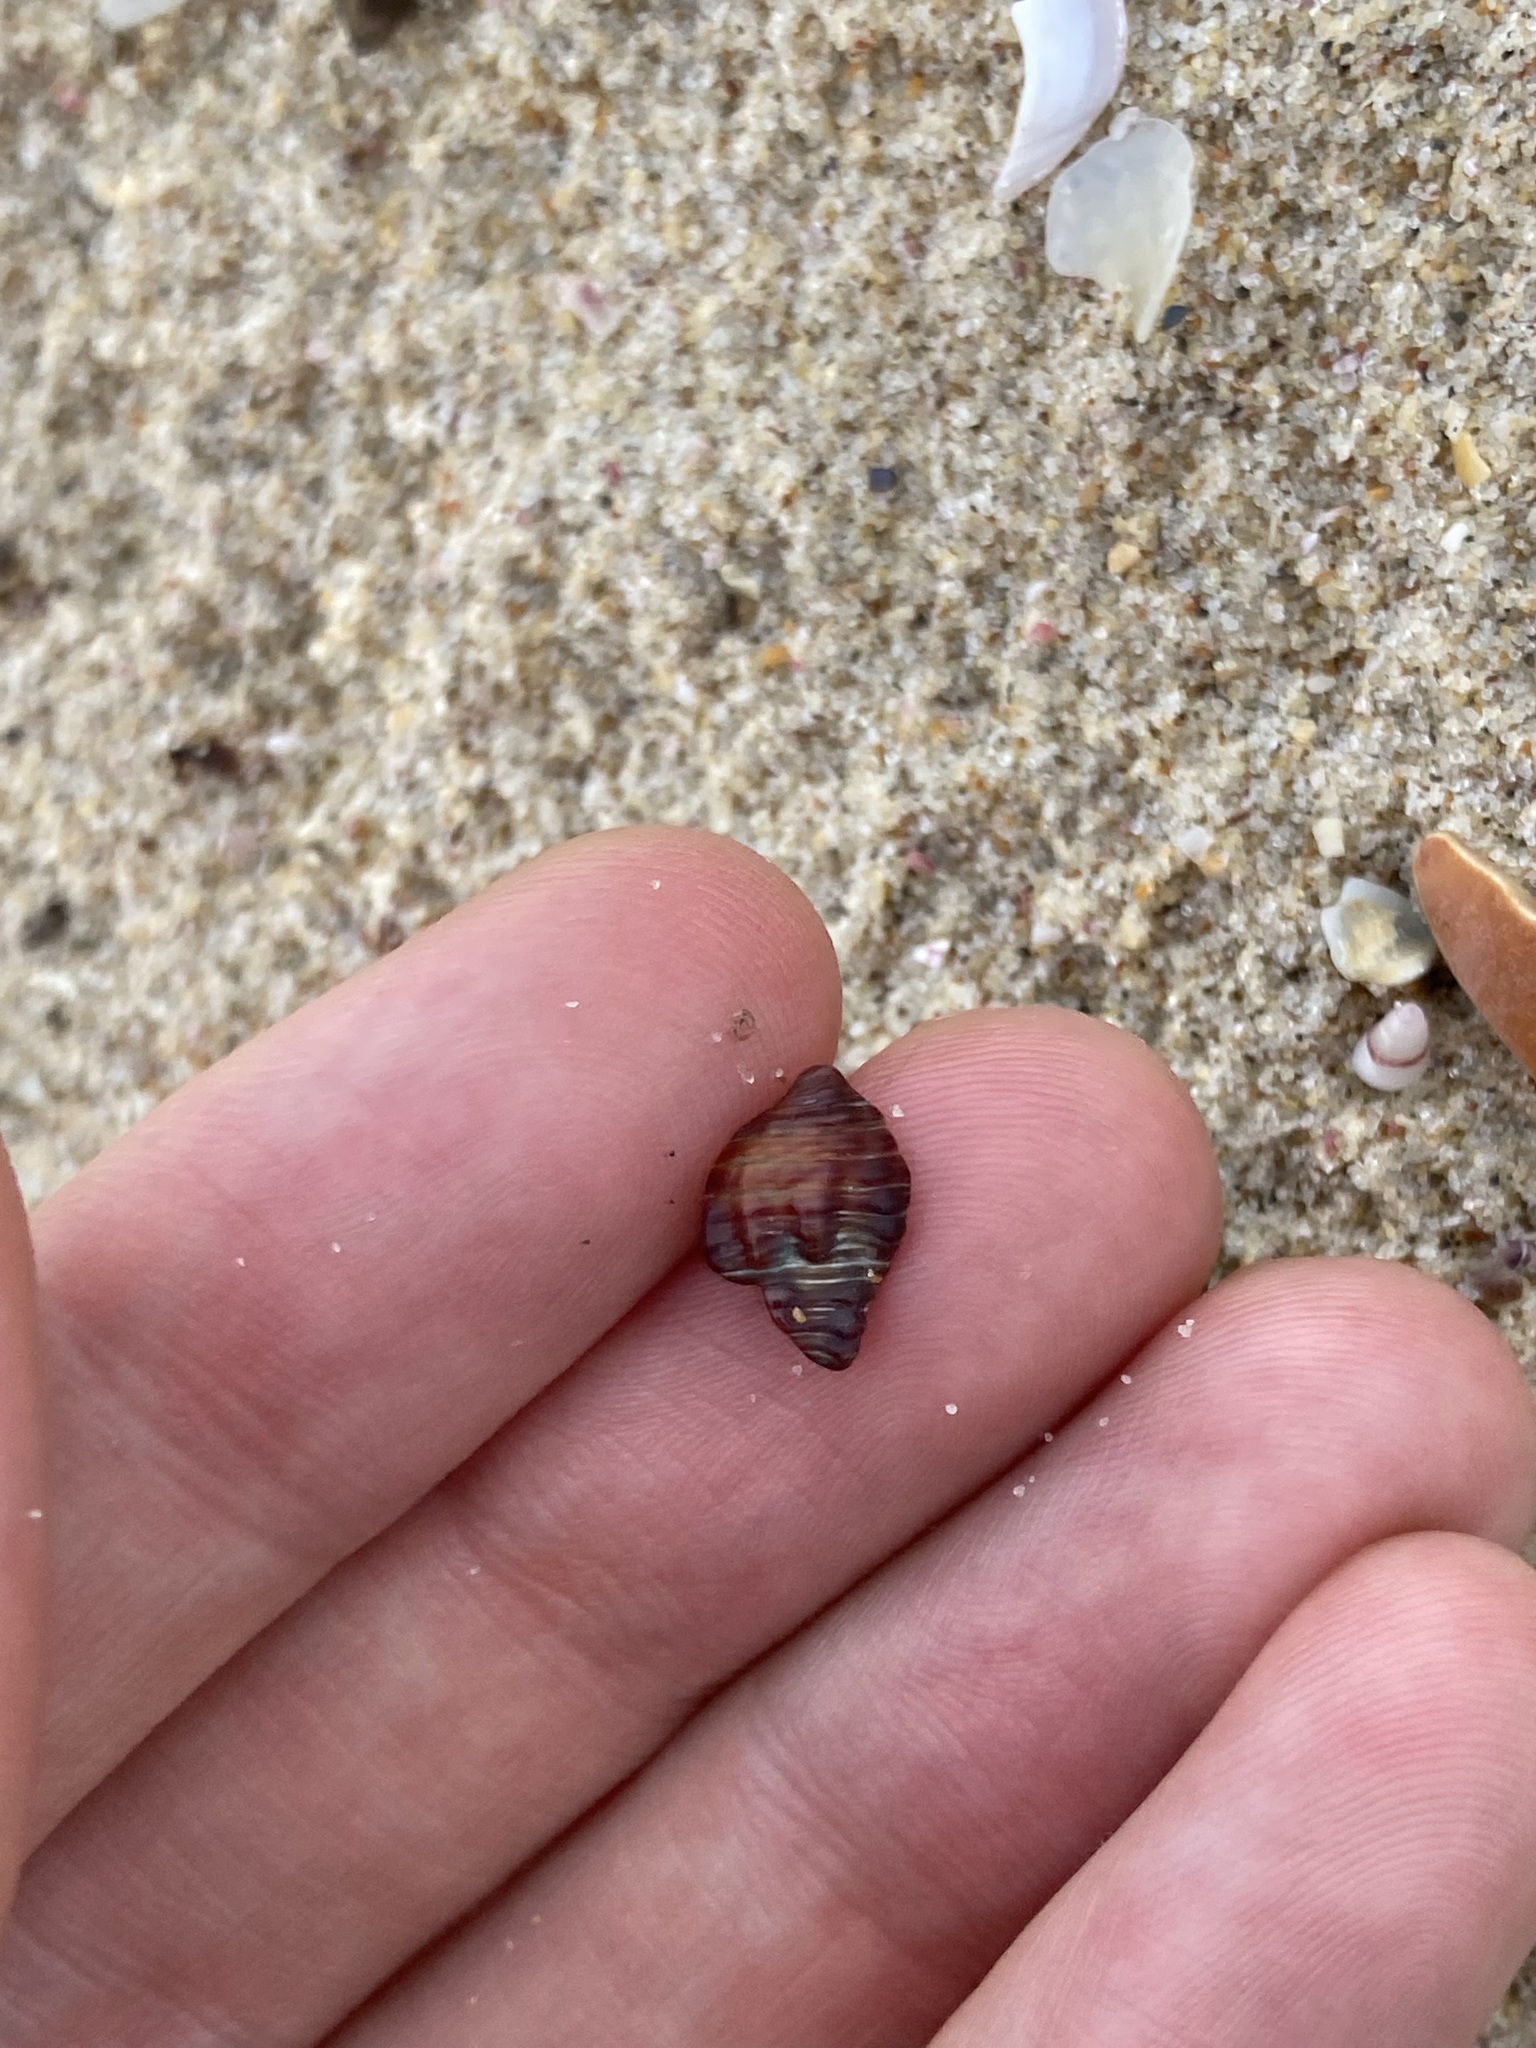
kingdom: Animalia
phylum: Mollusca
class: Gastropoda
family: Batillariidae
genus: Batillaria
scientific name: Batillaria australis
